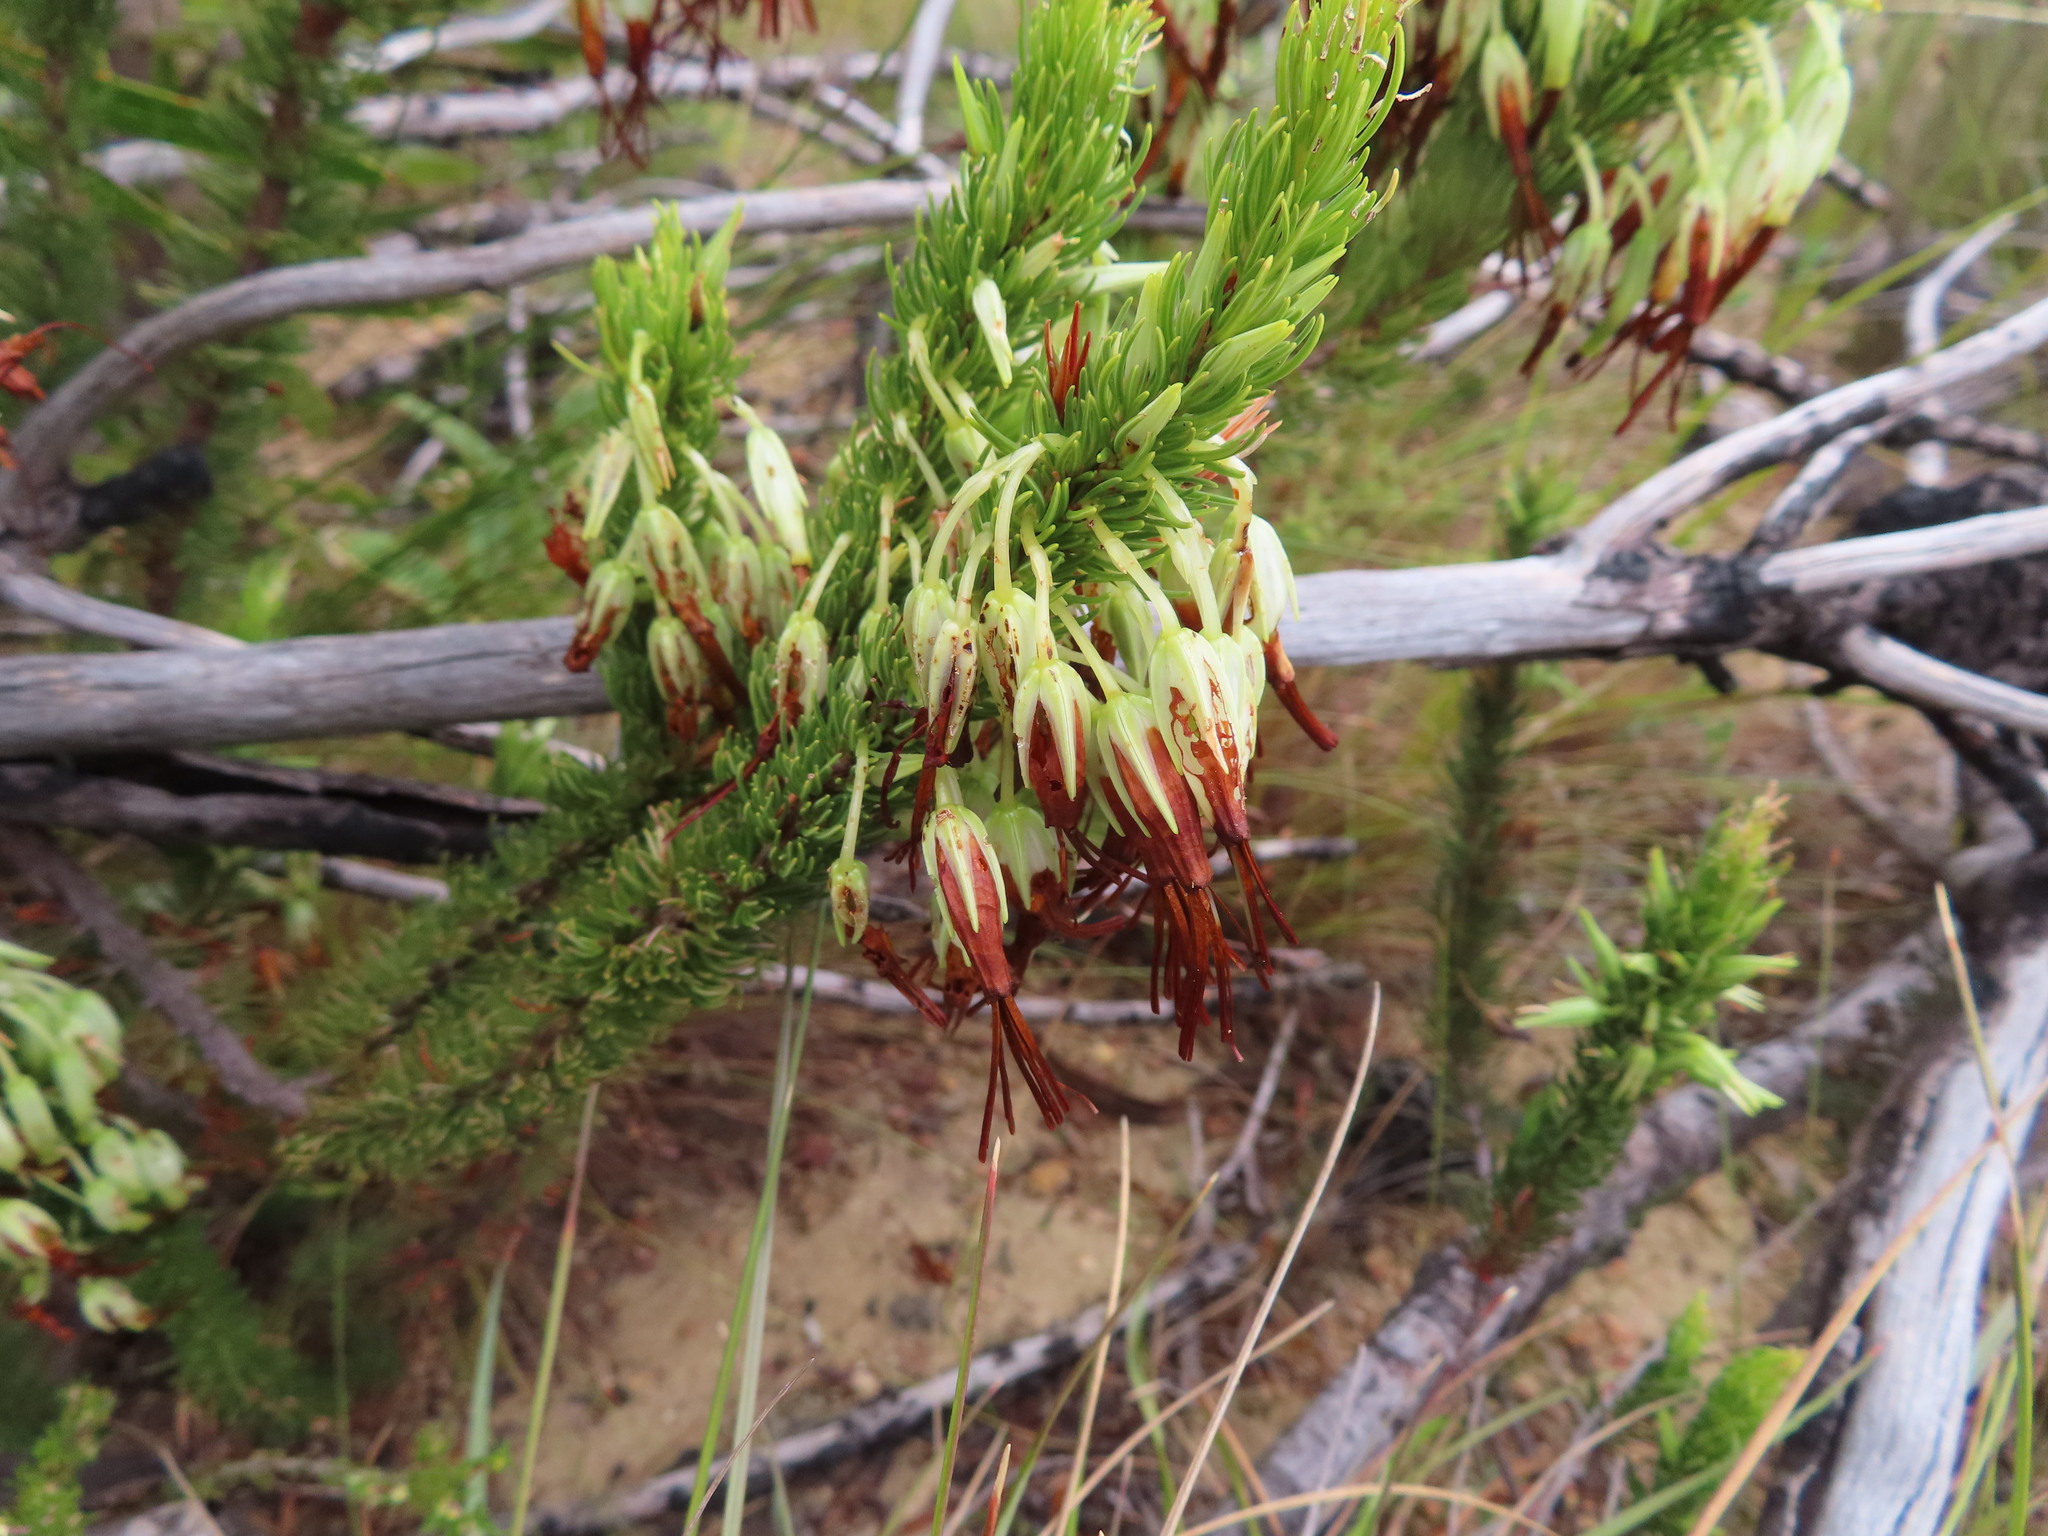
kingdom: Plantae
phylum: Tracheophyta
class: Magnoliopsida
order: Ericales
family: Ericaceae
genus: Erica
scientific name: Erica plukenetii
